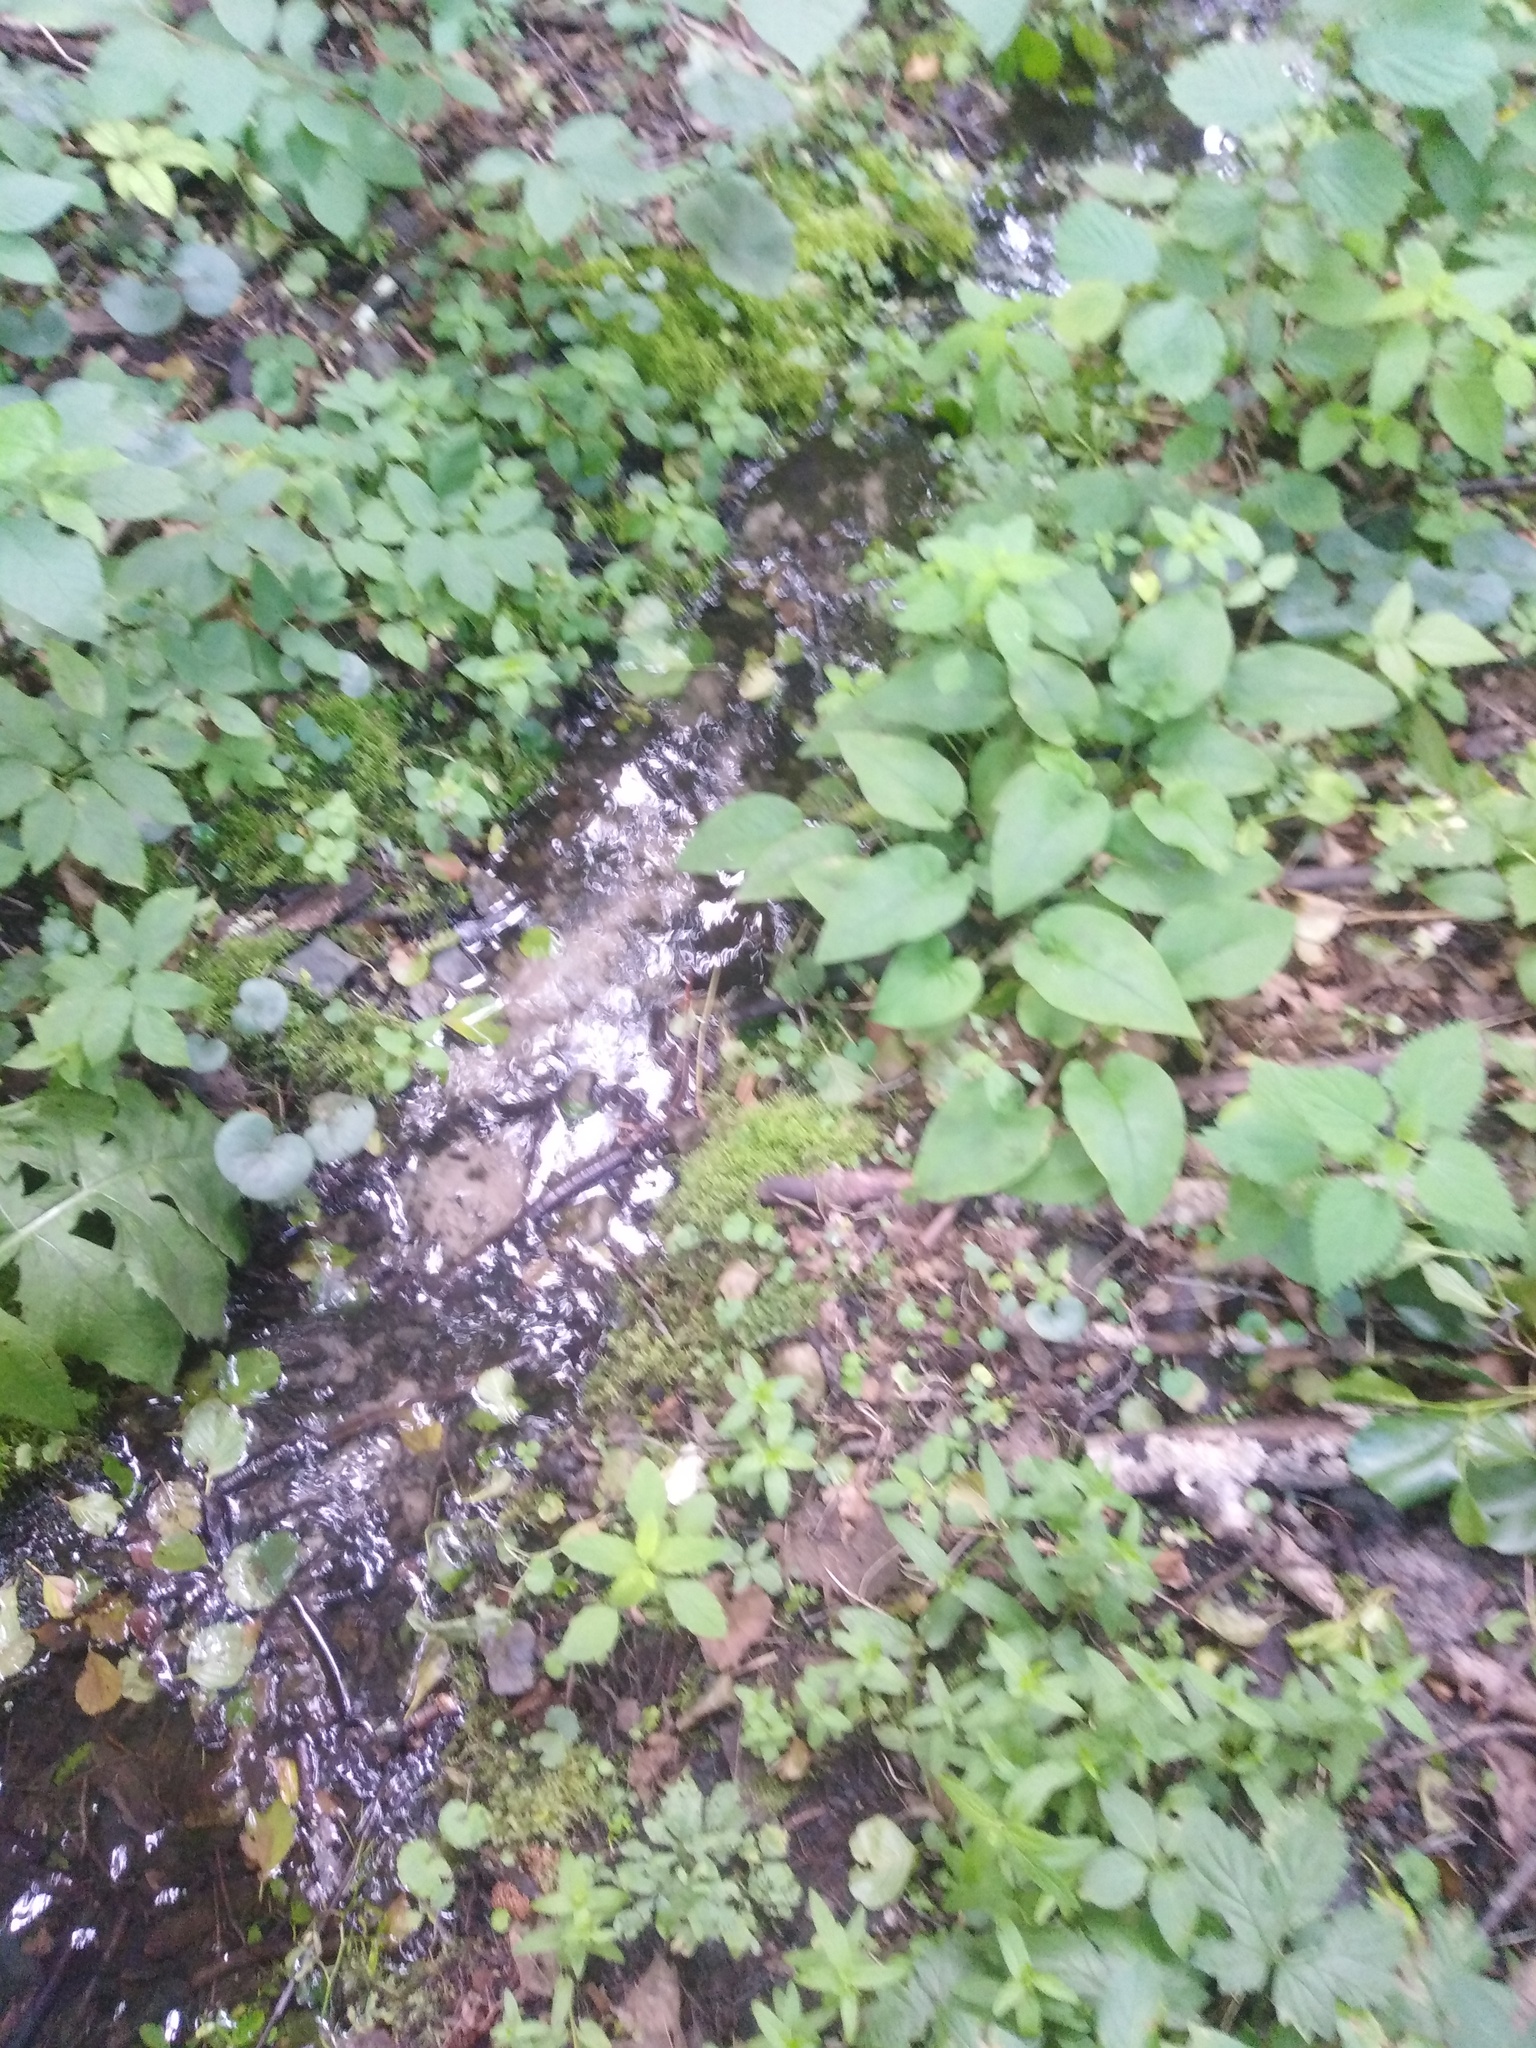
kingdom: Plantae
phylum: Tracheophyta
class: Magnoliopsida
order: Caryophyllales
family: Caryophyllaceae
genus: Stellaria
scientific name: Stellaria nemorum
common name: Wood stitchwort
